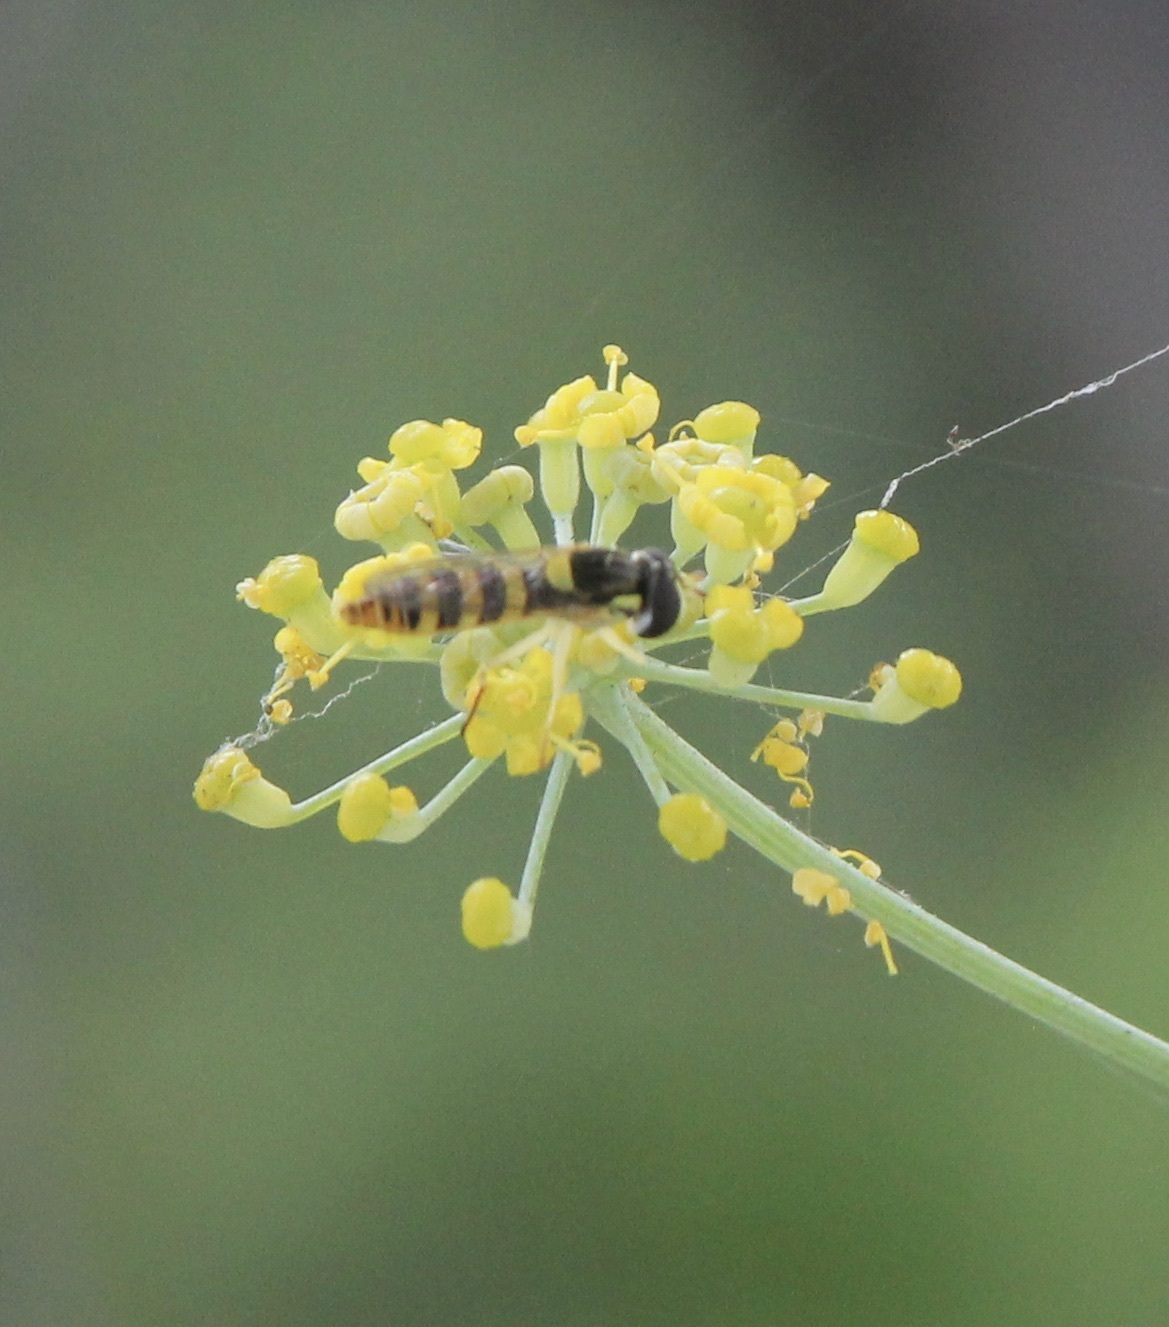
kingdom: Animalia
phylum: Arthropoda
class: Insecta
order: Diptera
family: Syrphidae
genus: Sphaerophoria
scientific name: Sphaerophoria sulphuripes
